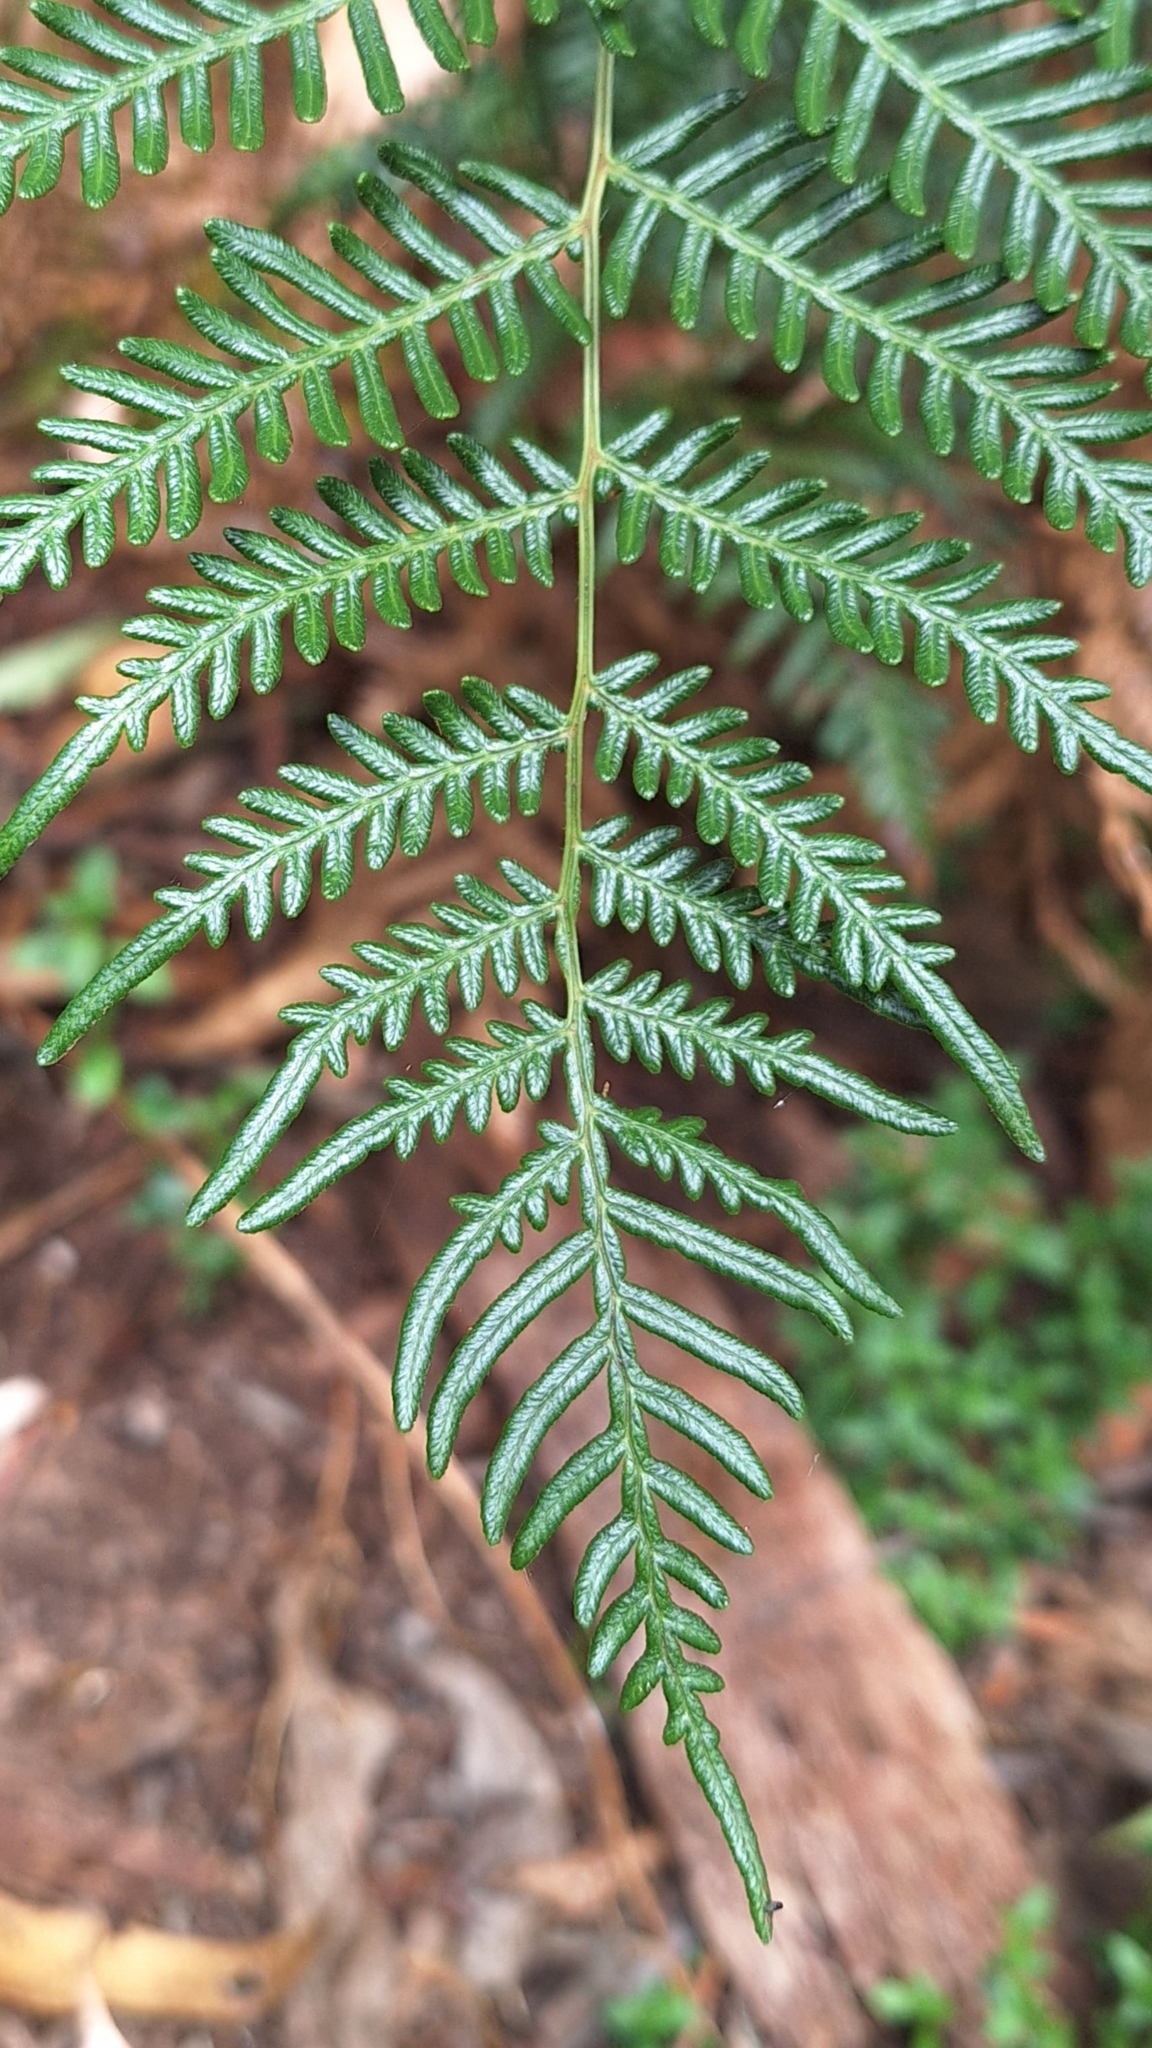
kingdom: Plantae
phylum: Tracheophyta
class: Polypodiopsida
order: Polypodiales
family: Dennstaedtiaceae
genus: Pteridium
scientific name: Pteridium esculentum
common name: Bracken fern
